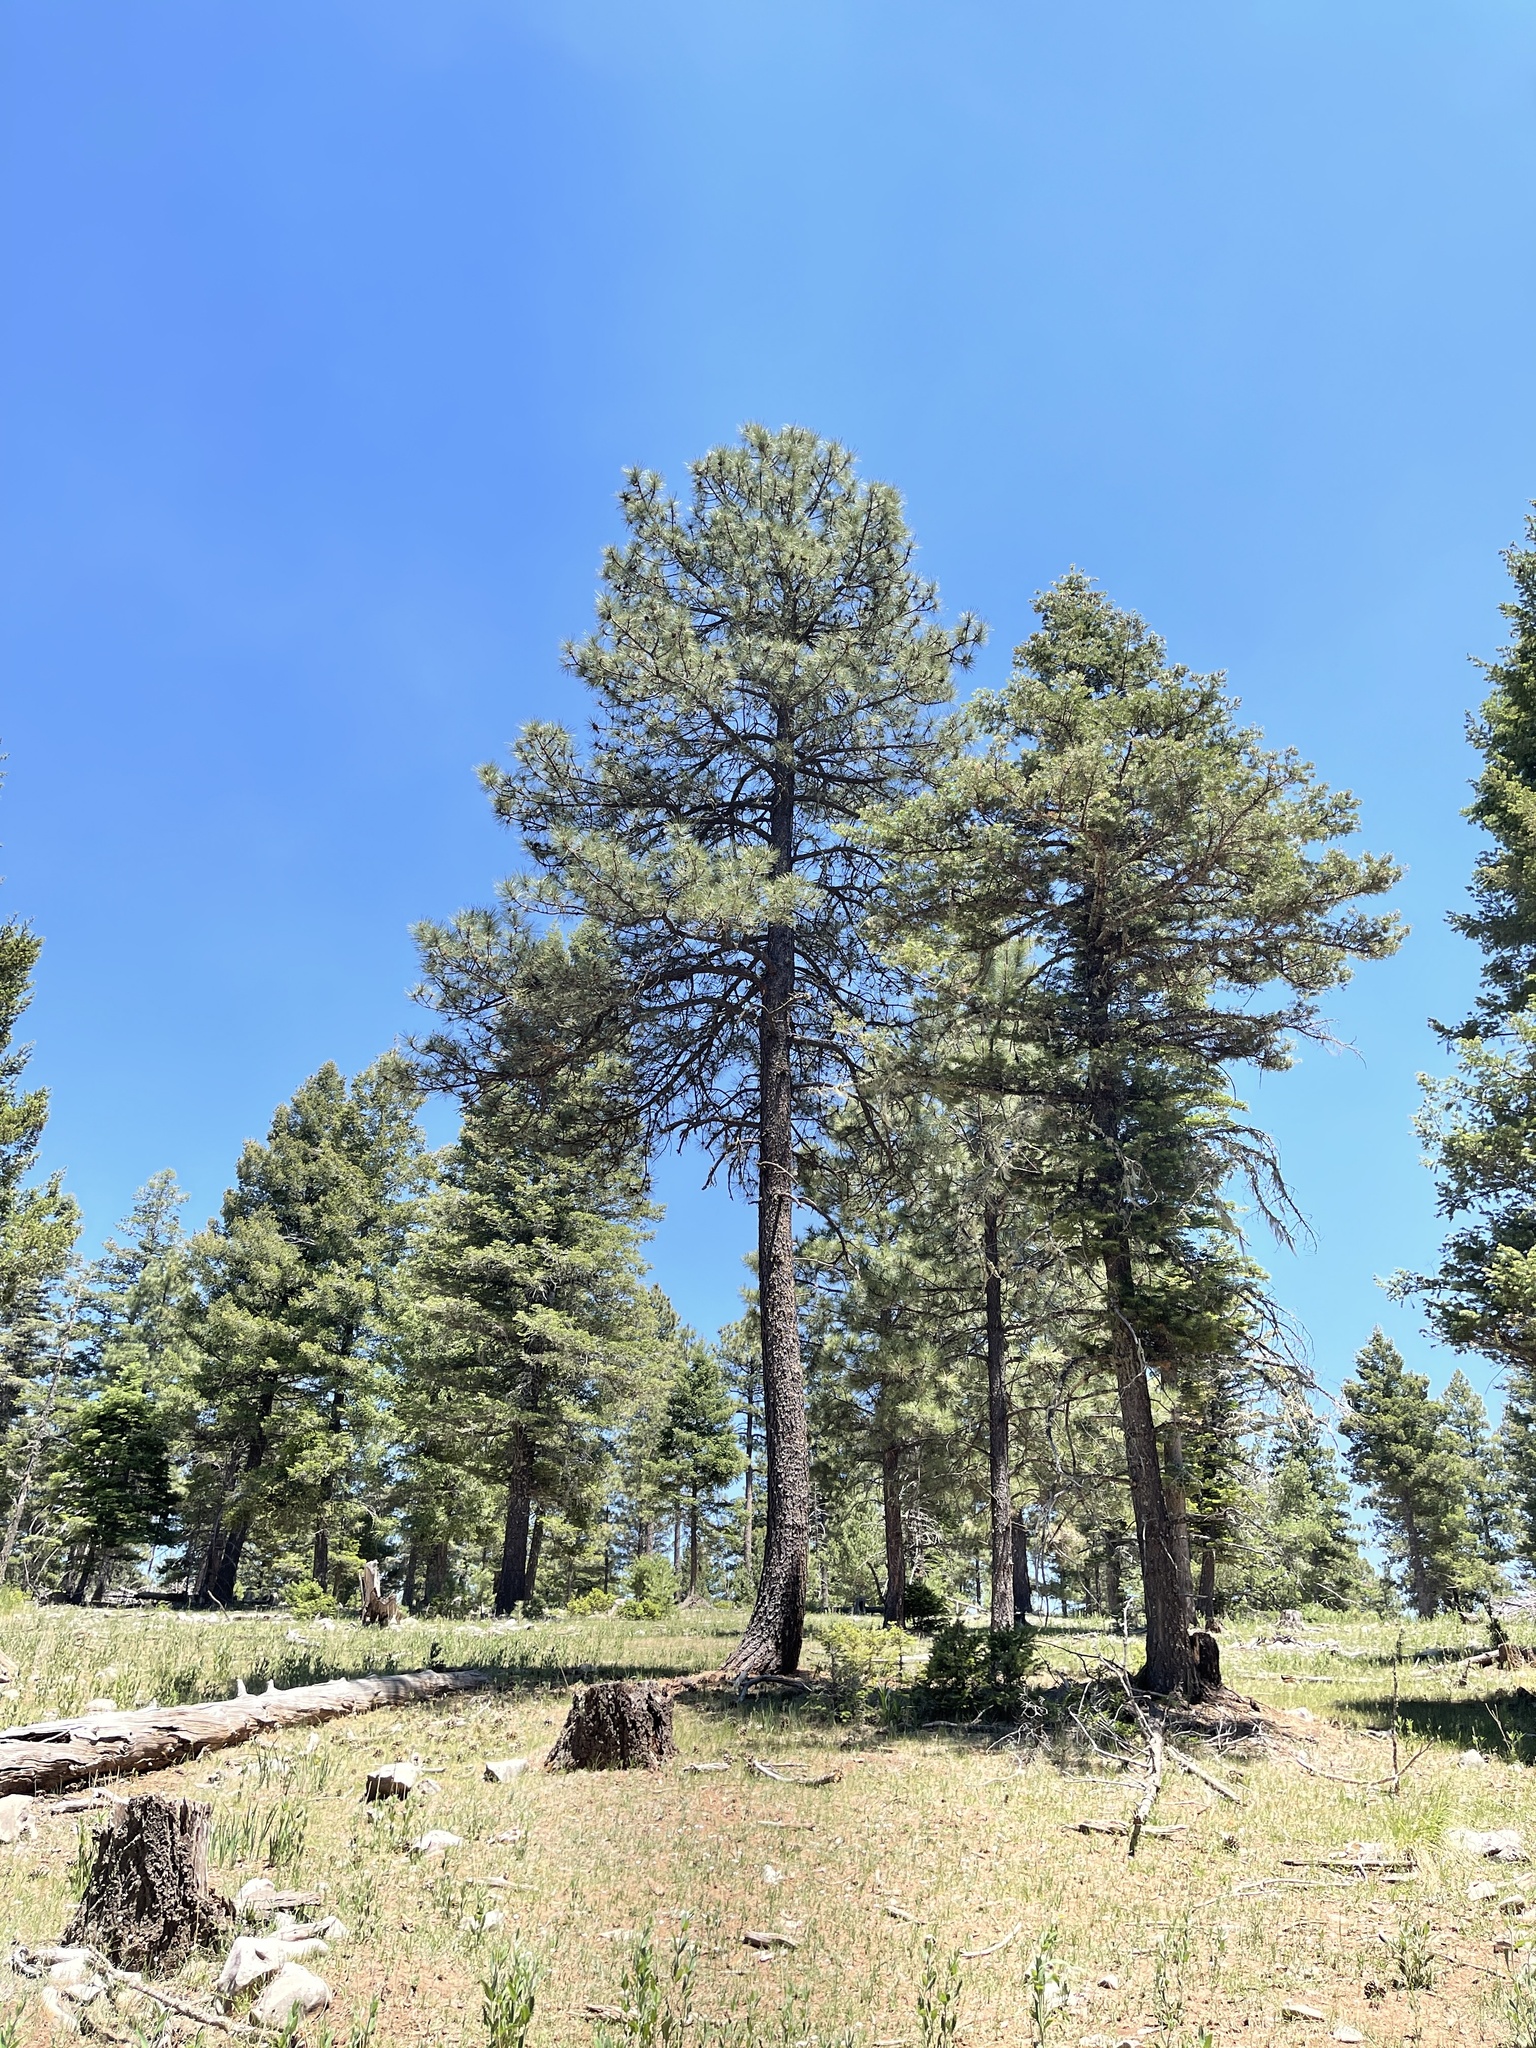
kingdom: Plantae
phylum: Tracheophyta
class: Pinopsida
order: Pinales
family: Pinaceae
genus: Pinus
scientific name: Pinus ponderosa
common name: Western yellow-pine
